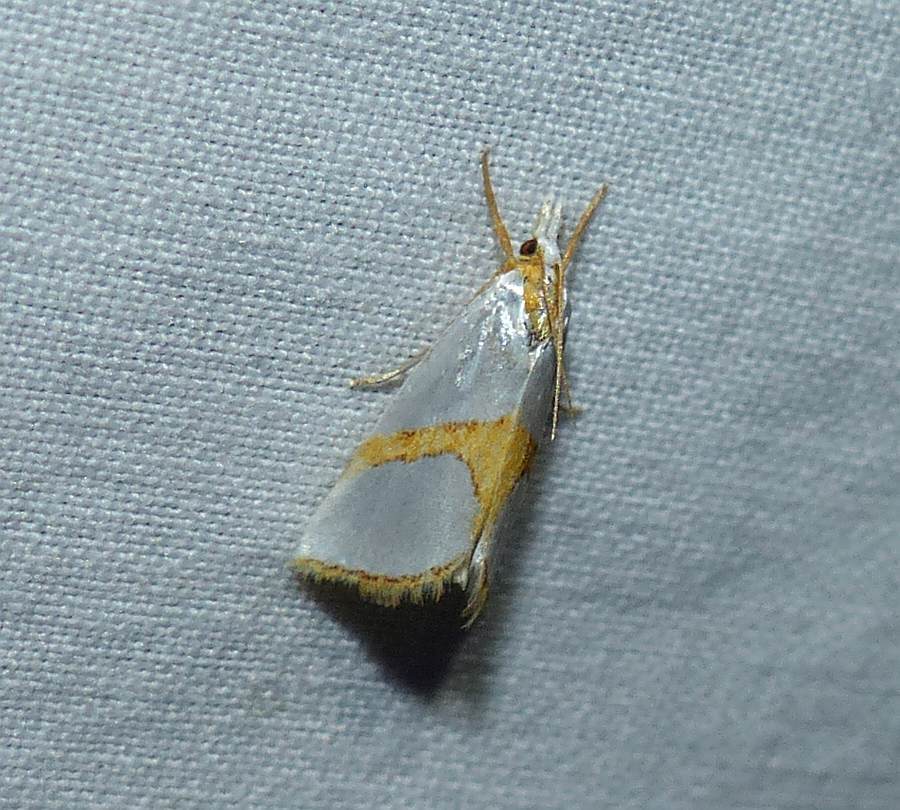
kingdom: Animalia
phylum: Arthropoda
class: Insecta
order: Lepidoptera
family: Crambidae
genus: Argyria
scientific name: Argyria auratella
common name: Curve-lined argyria moth
